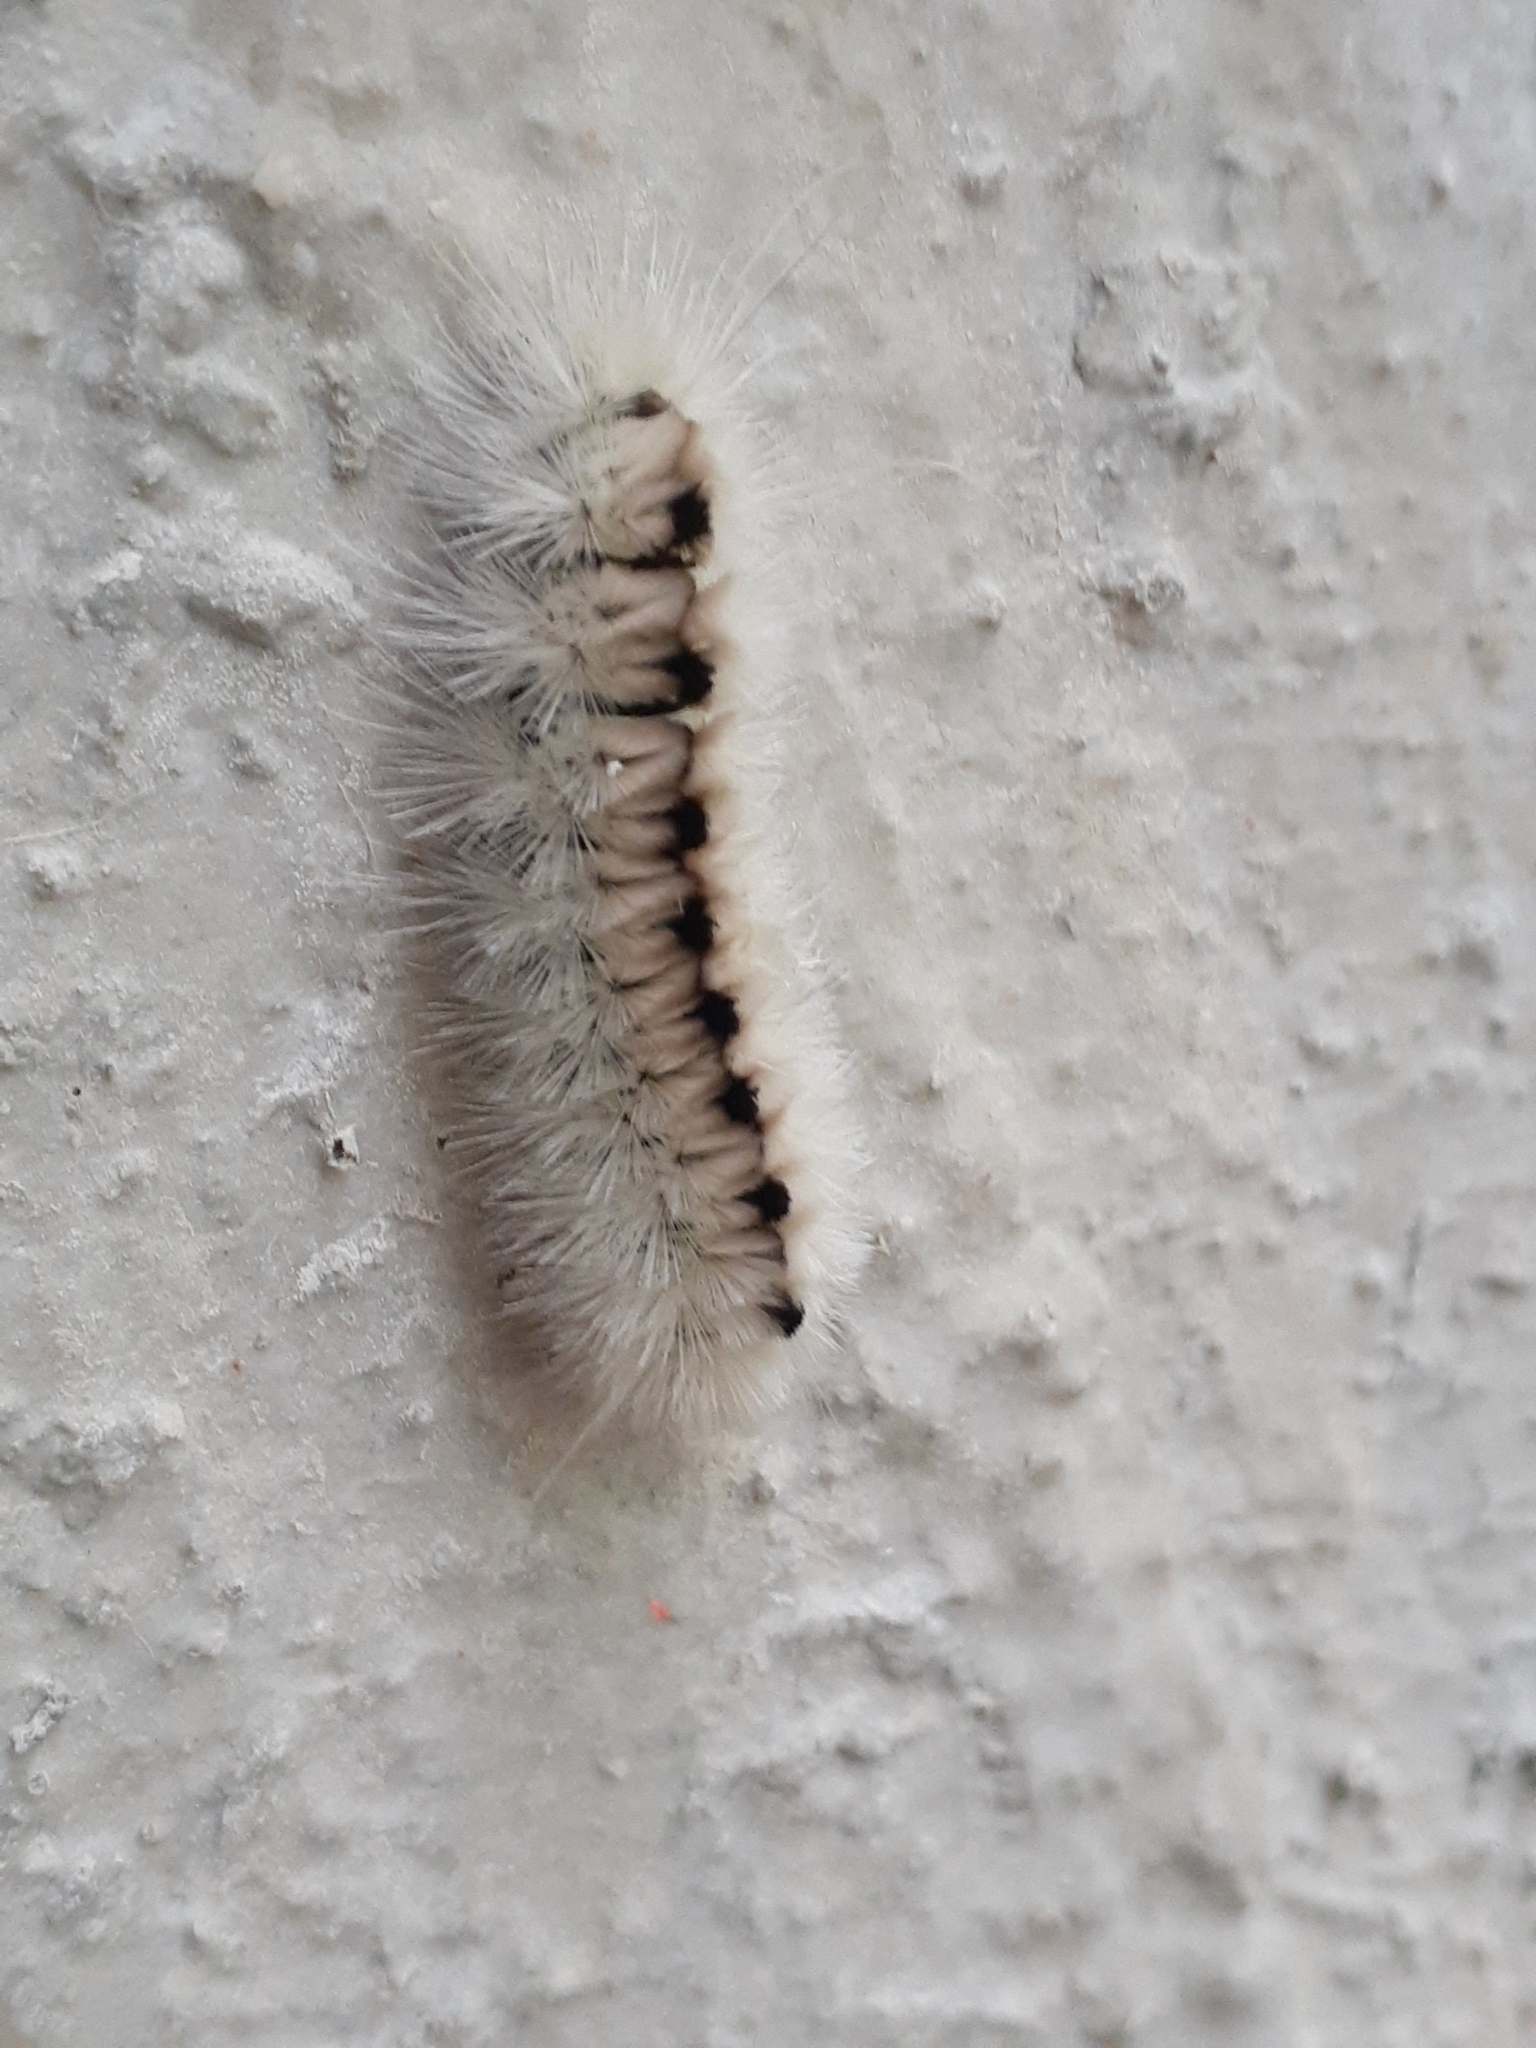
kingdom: Animalia
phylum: Arthropoda
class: Insecta
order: Lepidoptera
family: Erebidae
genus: Lophocampa
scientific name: Lophocampa caryae
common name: Hickory tussock moth
